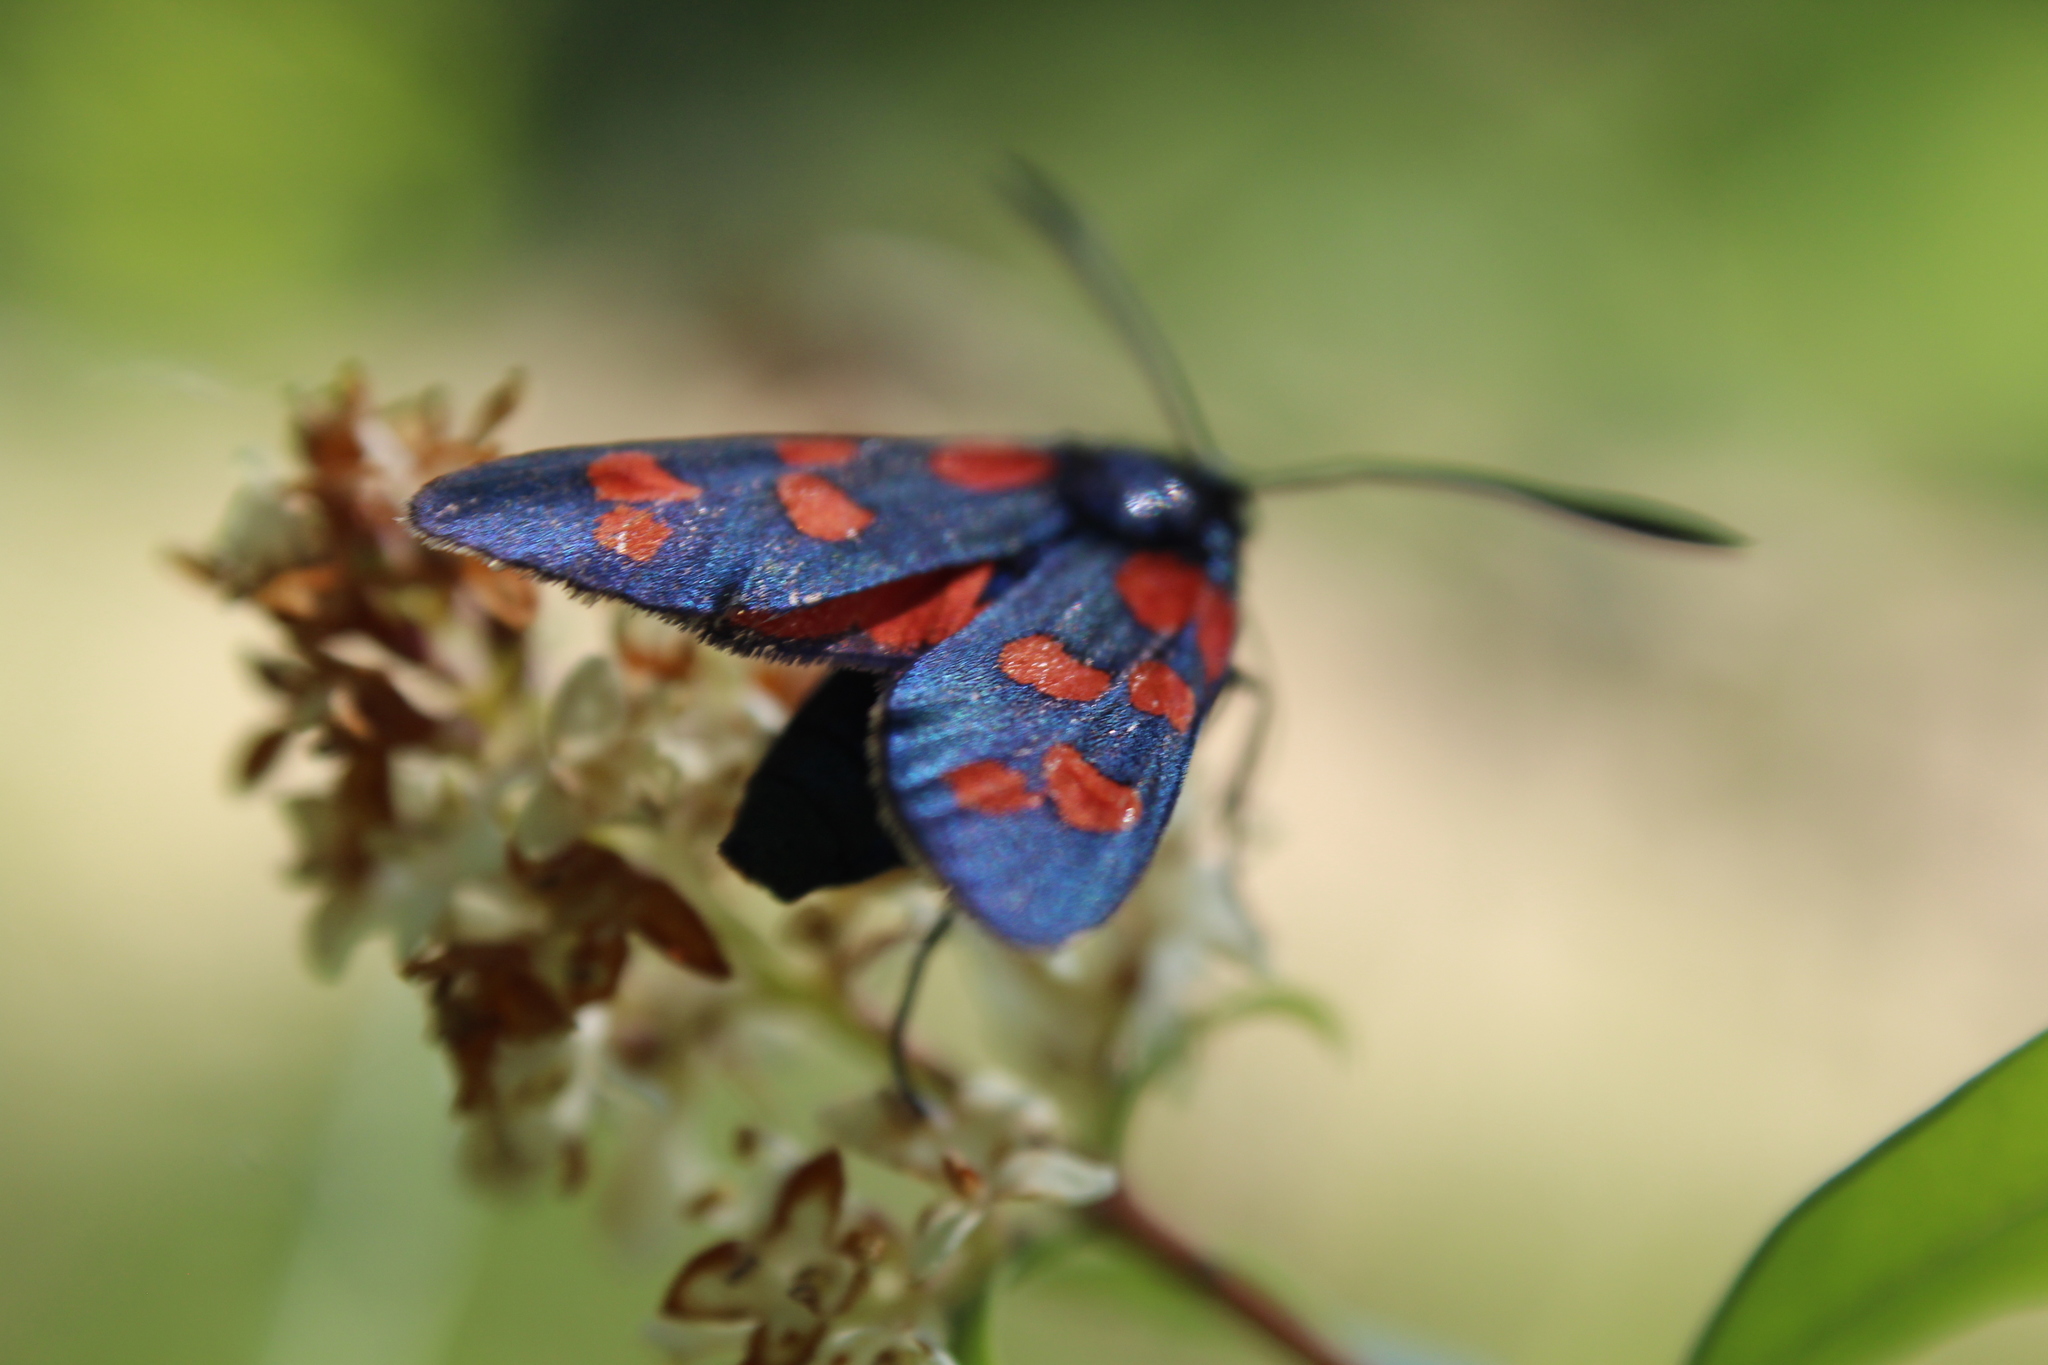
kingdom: Animalia
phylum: Arthropoda
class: Insecta
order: Lepidoptera
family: Zygaenidae
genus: Zygaena
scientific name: Zygaena transalpina
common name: Southern six spot burnet
